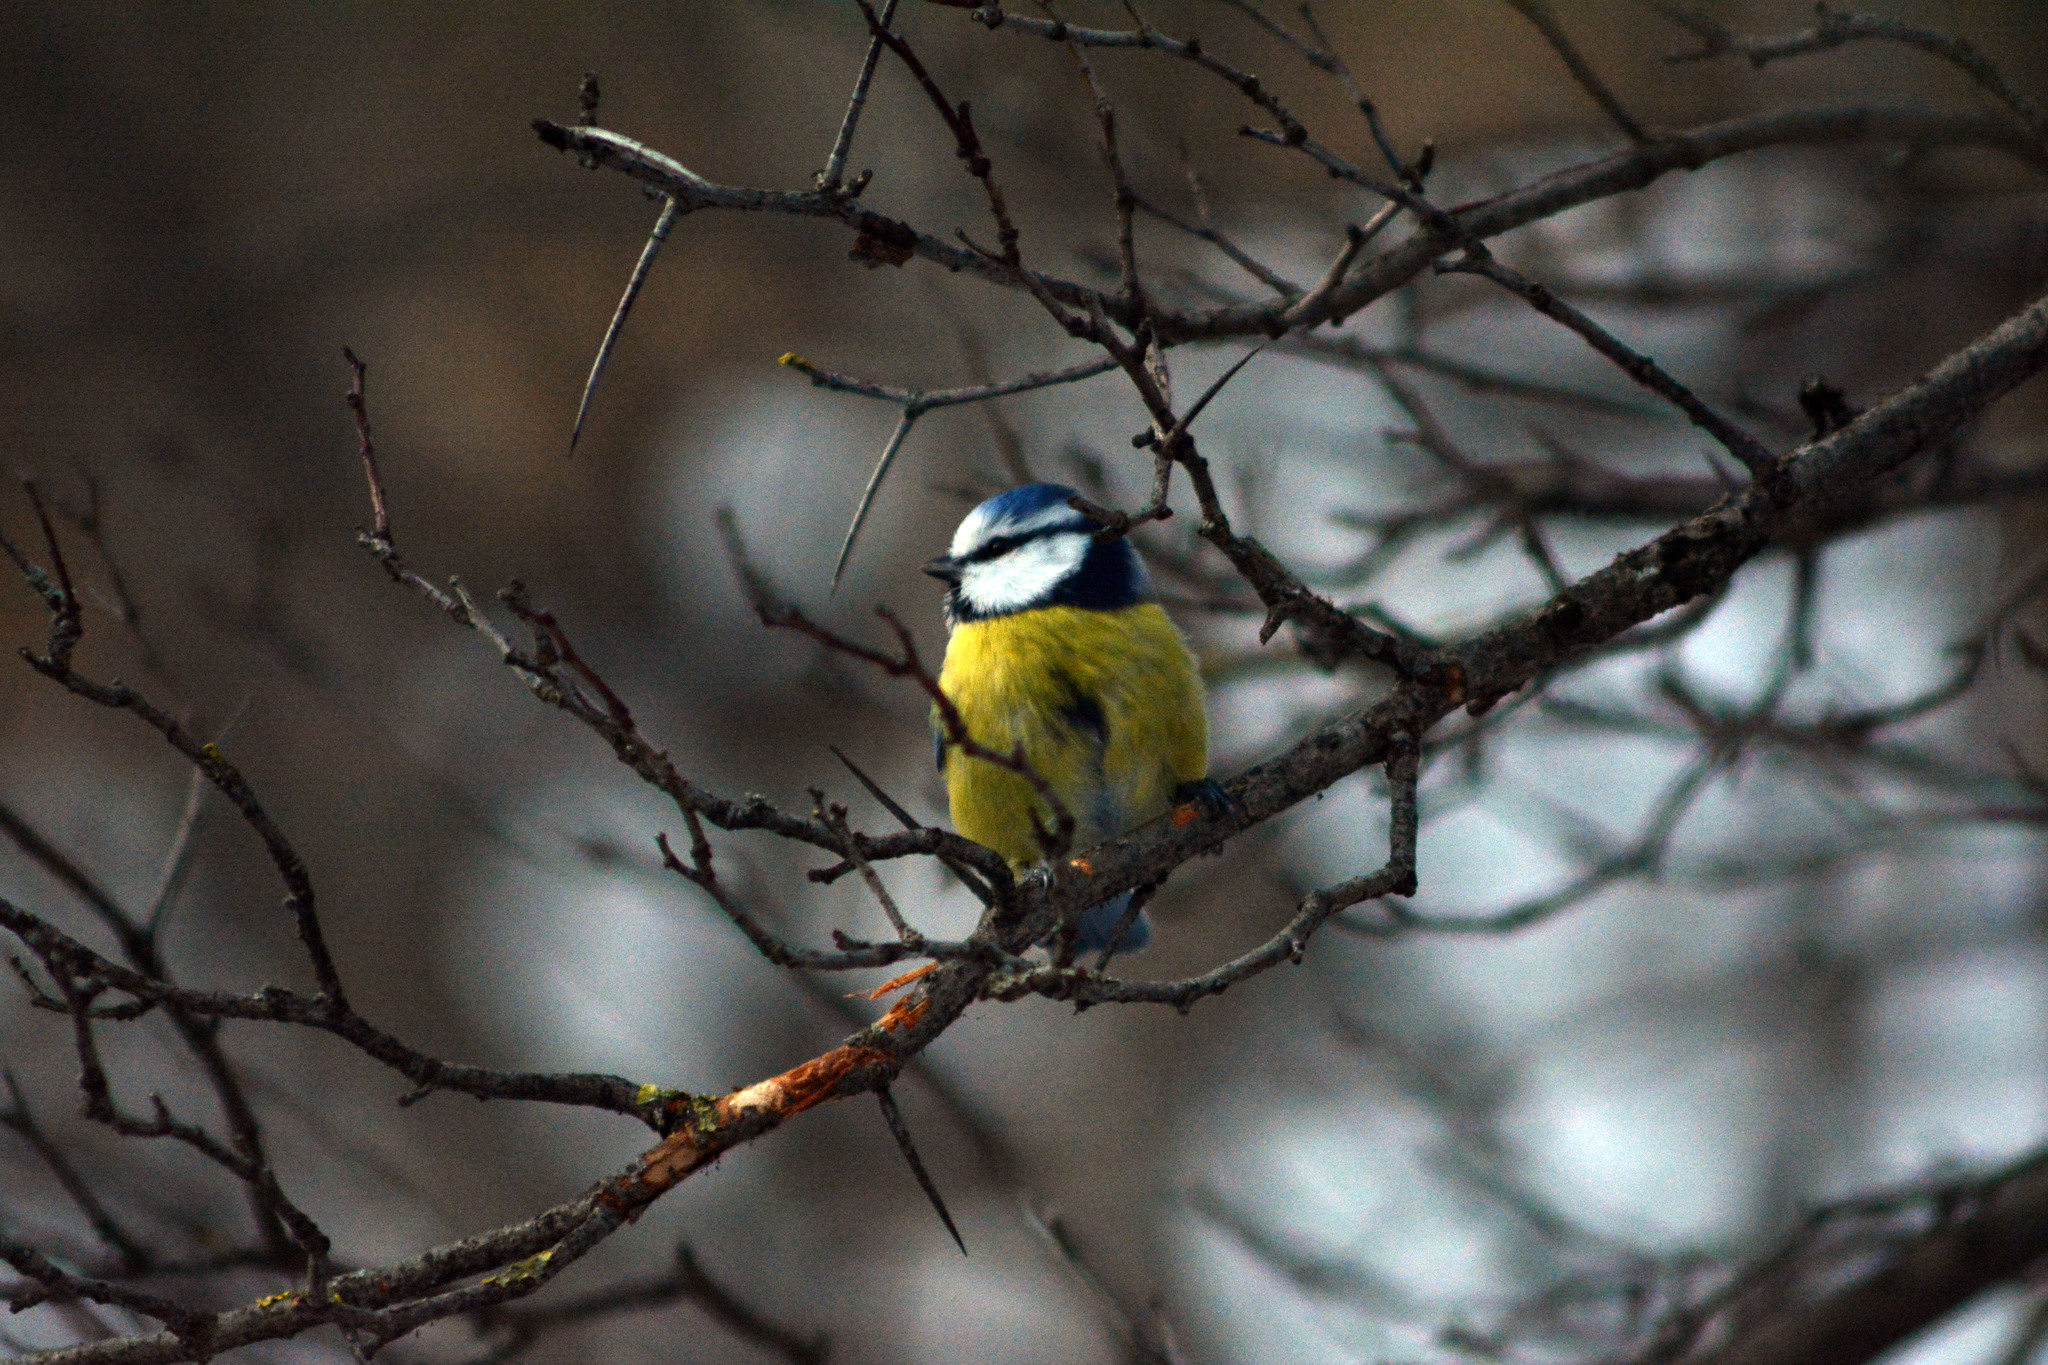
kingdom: Animalia
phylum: Chordata
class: Aves
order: Passeriformes
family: Paridae
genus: Cyanistes
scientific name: Cyanistes caeruleus
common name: Eurasian blue tit
